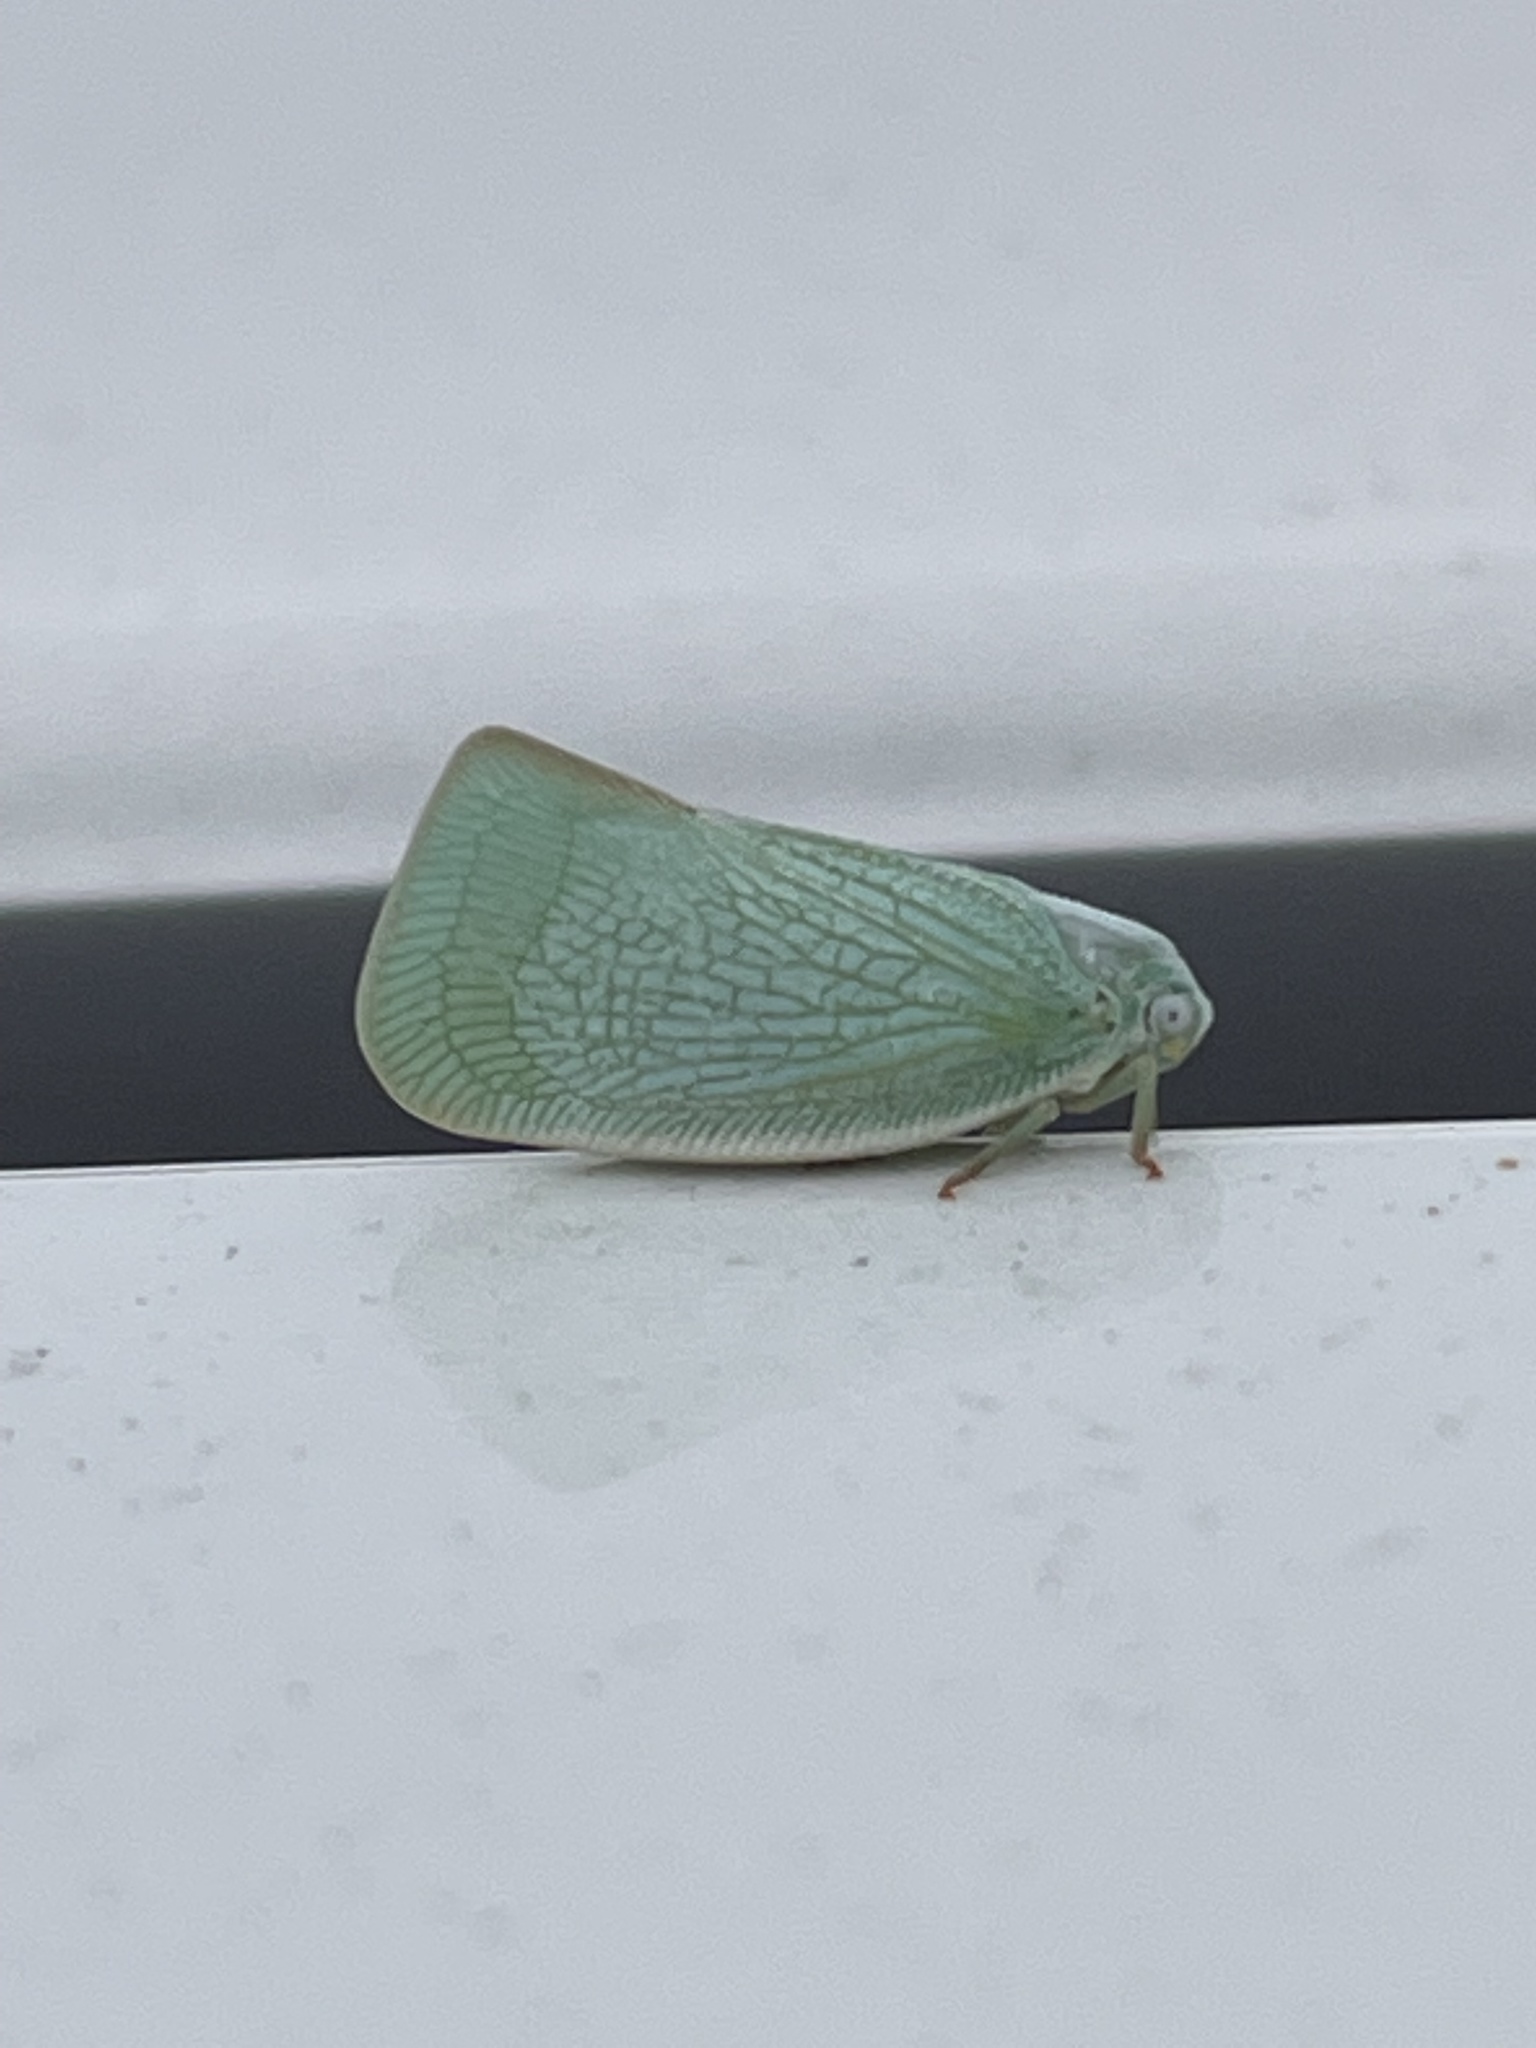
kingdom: Animalia
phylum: Arthropoda
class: Insecta
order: Hemiptera
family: Flatidae
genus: Flatormenis
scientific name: Flatormenis proxima
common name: Northern flatid planthopper
